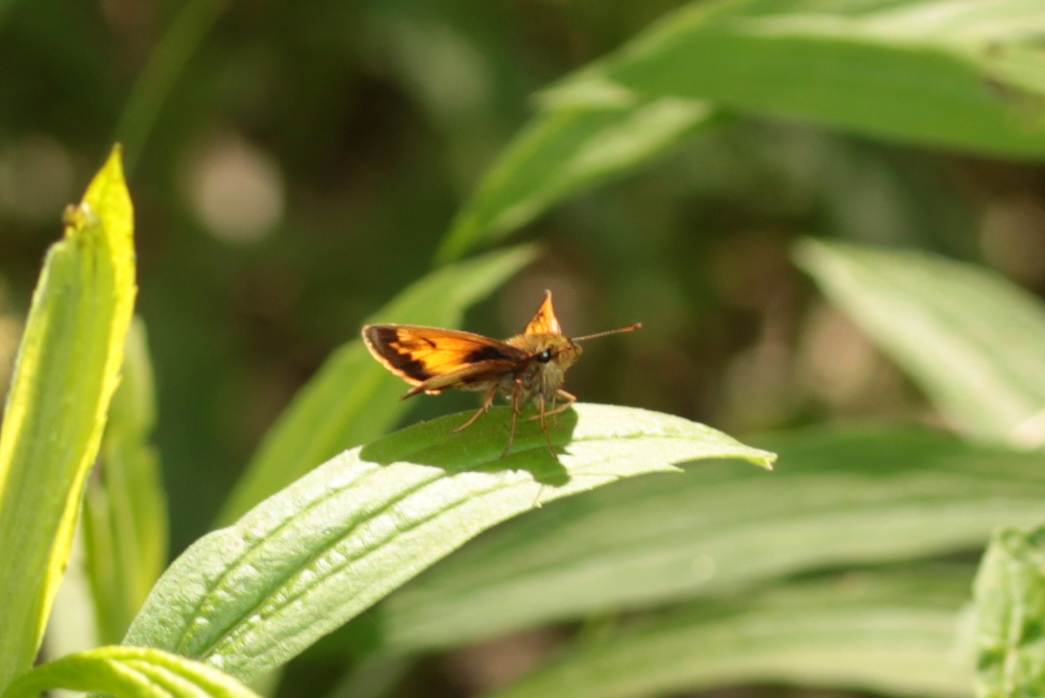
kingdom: Animalia
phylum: Arthropoda
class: Insecta
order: Lepidoptera
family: Hesperiidae
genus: Lon
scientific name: Lon hobomok
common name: Hobomok skipper
